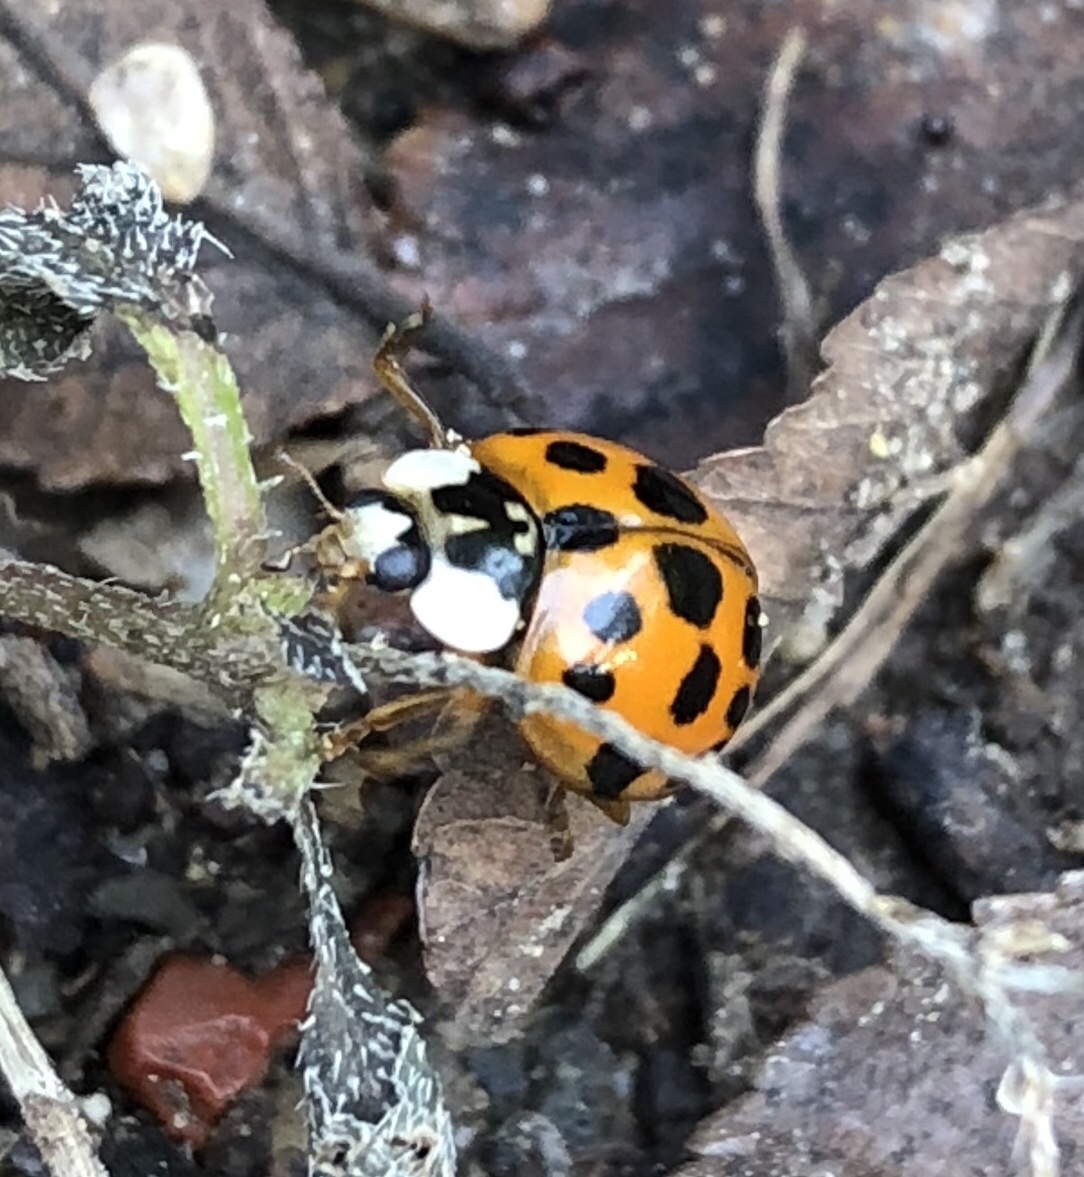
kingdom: Animalia
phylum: Arthropoda
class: Insecta
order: Coleoptera
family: Coccinellidae
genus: Harmonia
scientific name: Harmonia axyridis
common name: Harlequin ladybird
